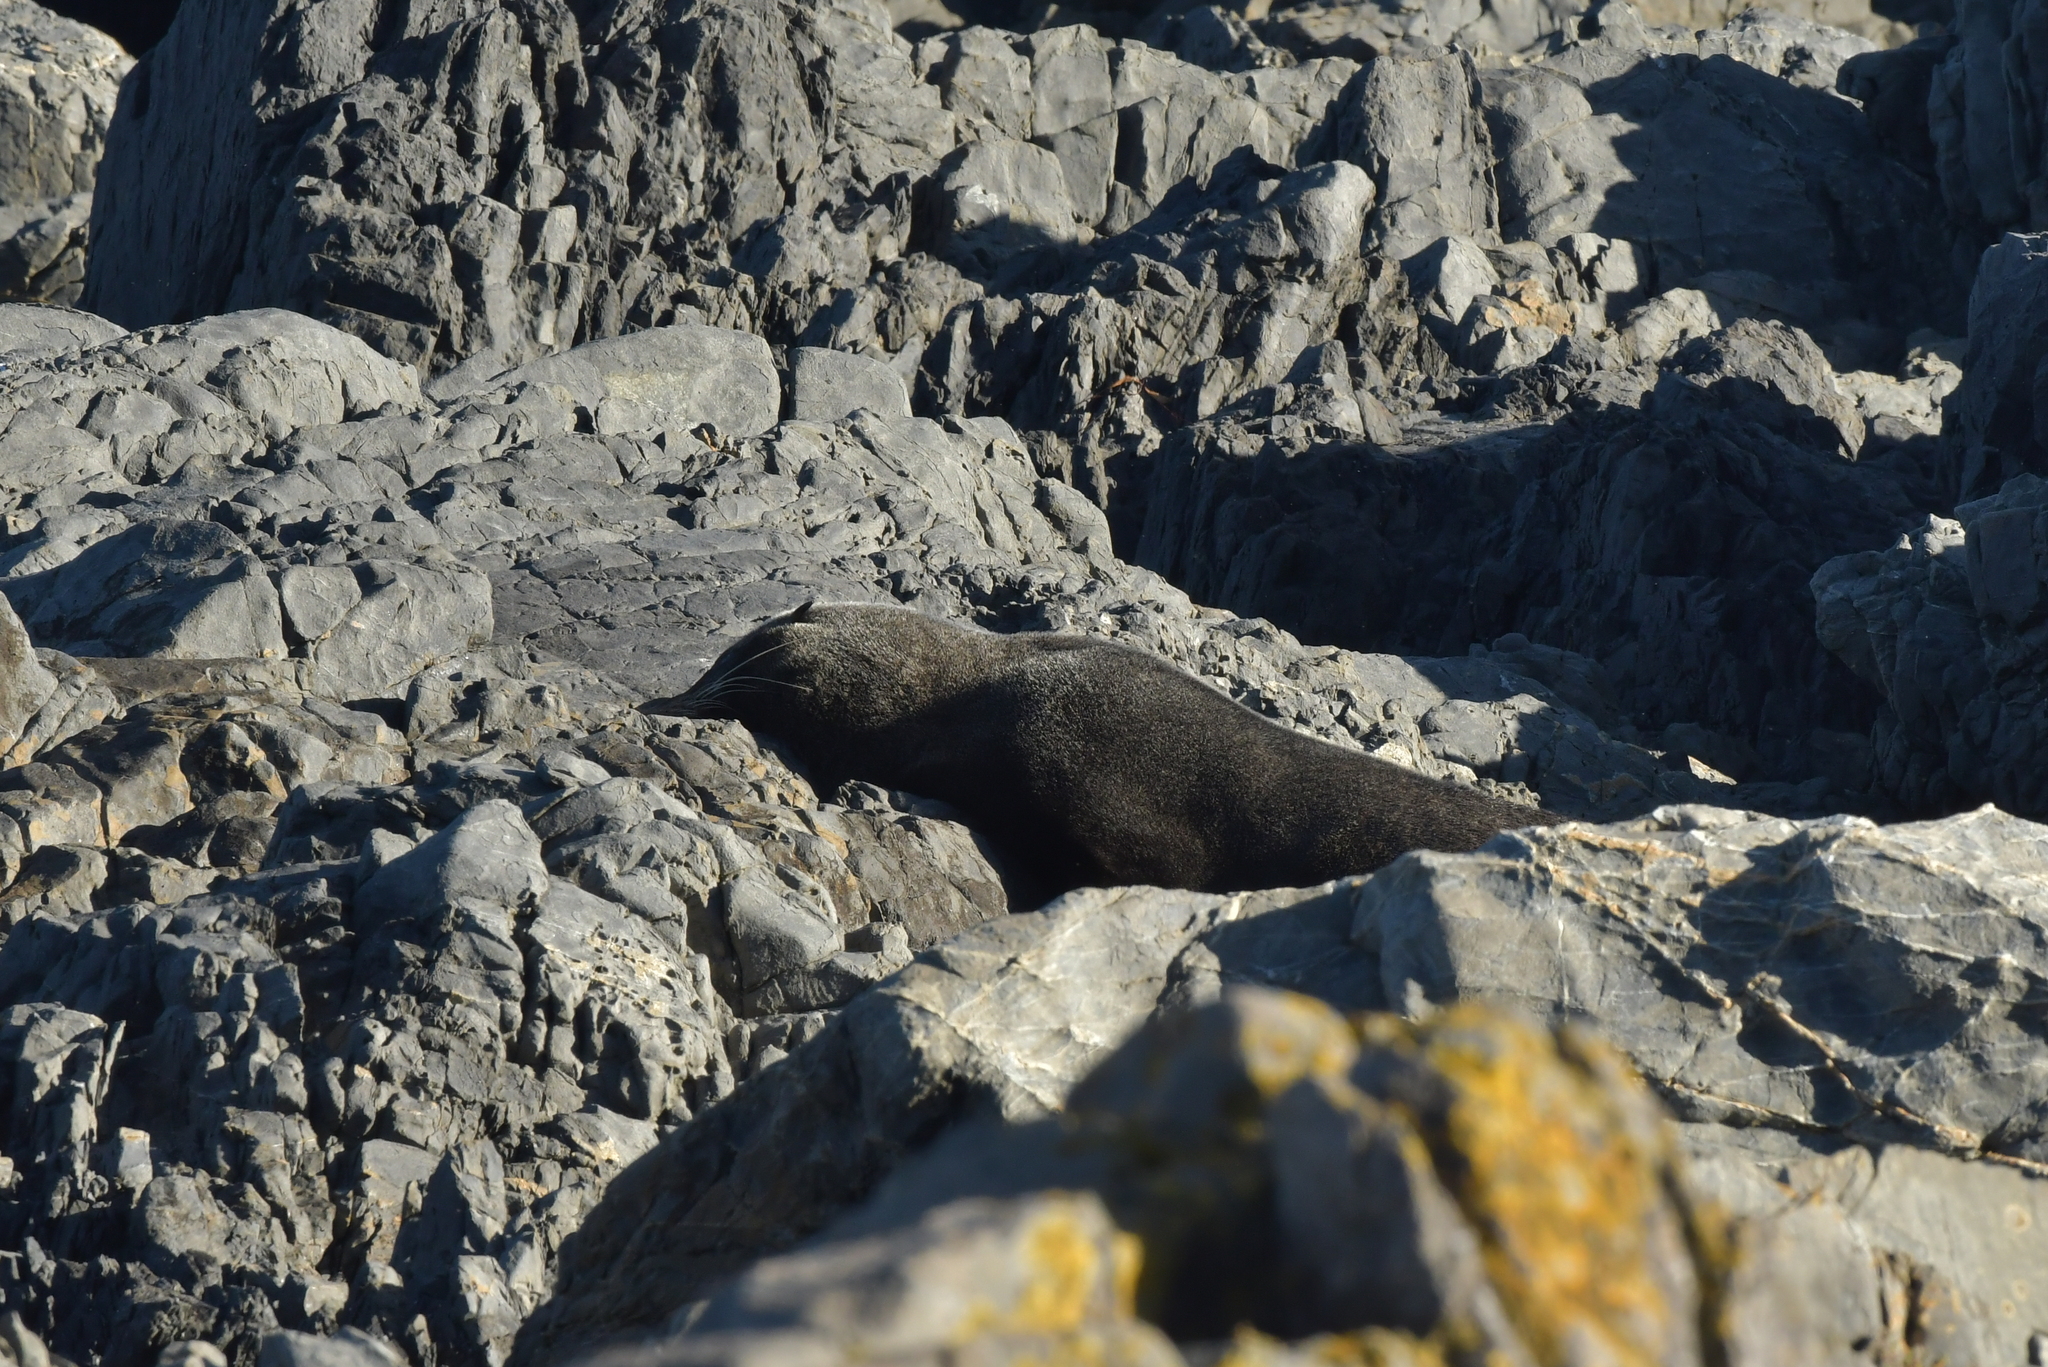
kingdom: Animalia
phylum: Chordata
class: Mammalia
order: Carnivora
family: Otariidae
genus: Arctocephalus
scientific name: Arctocephalus forsteri
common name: New zealand fur seal
